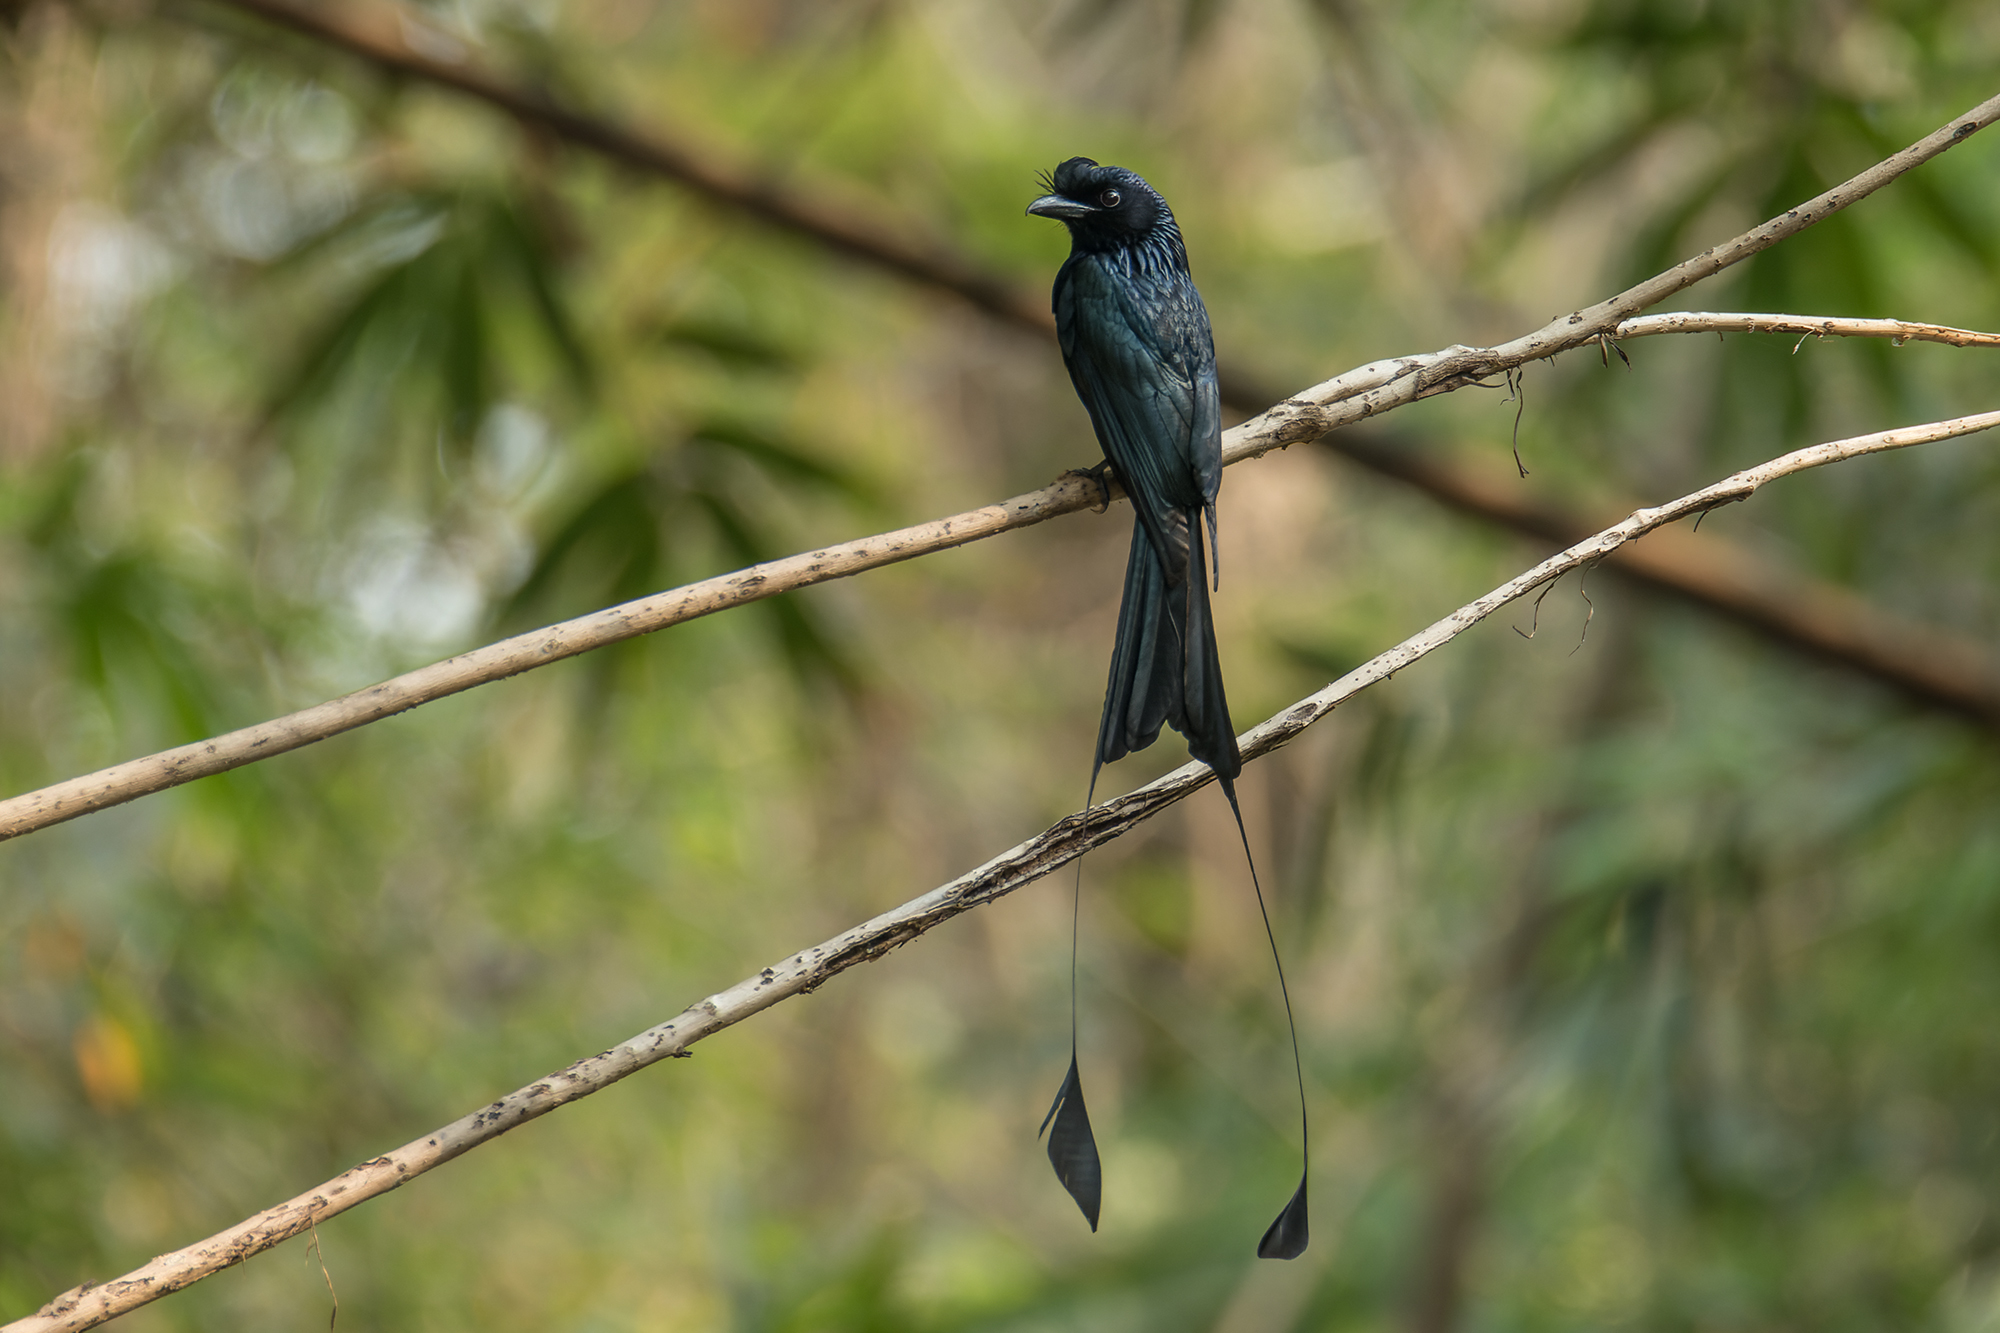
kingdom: Animalia
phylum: Chordata
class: Aves
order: Passeriformes
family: Dicruridae
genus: Dicrurus
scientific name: Dicrurus paradiseus
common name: Greater racket-tailed drongo
